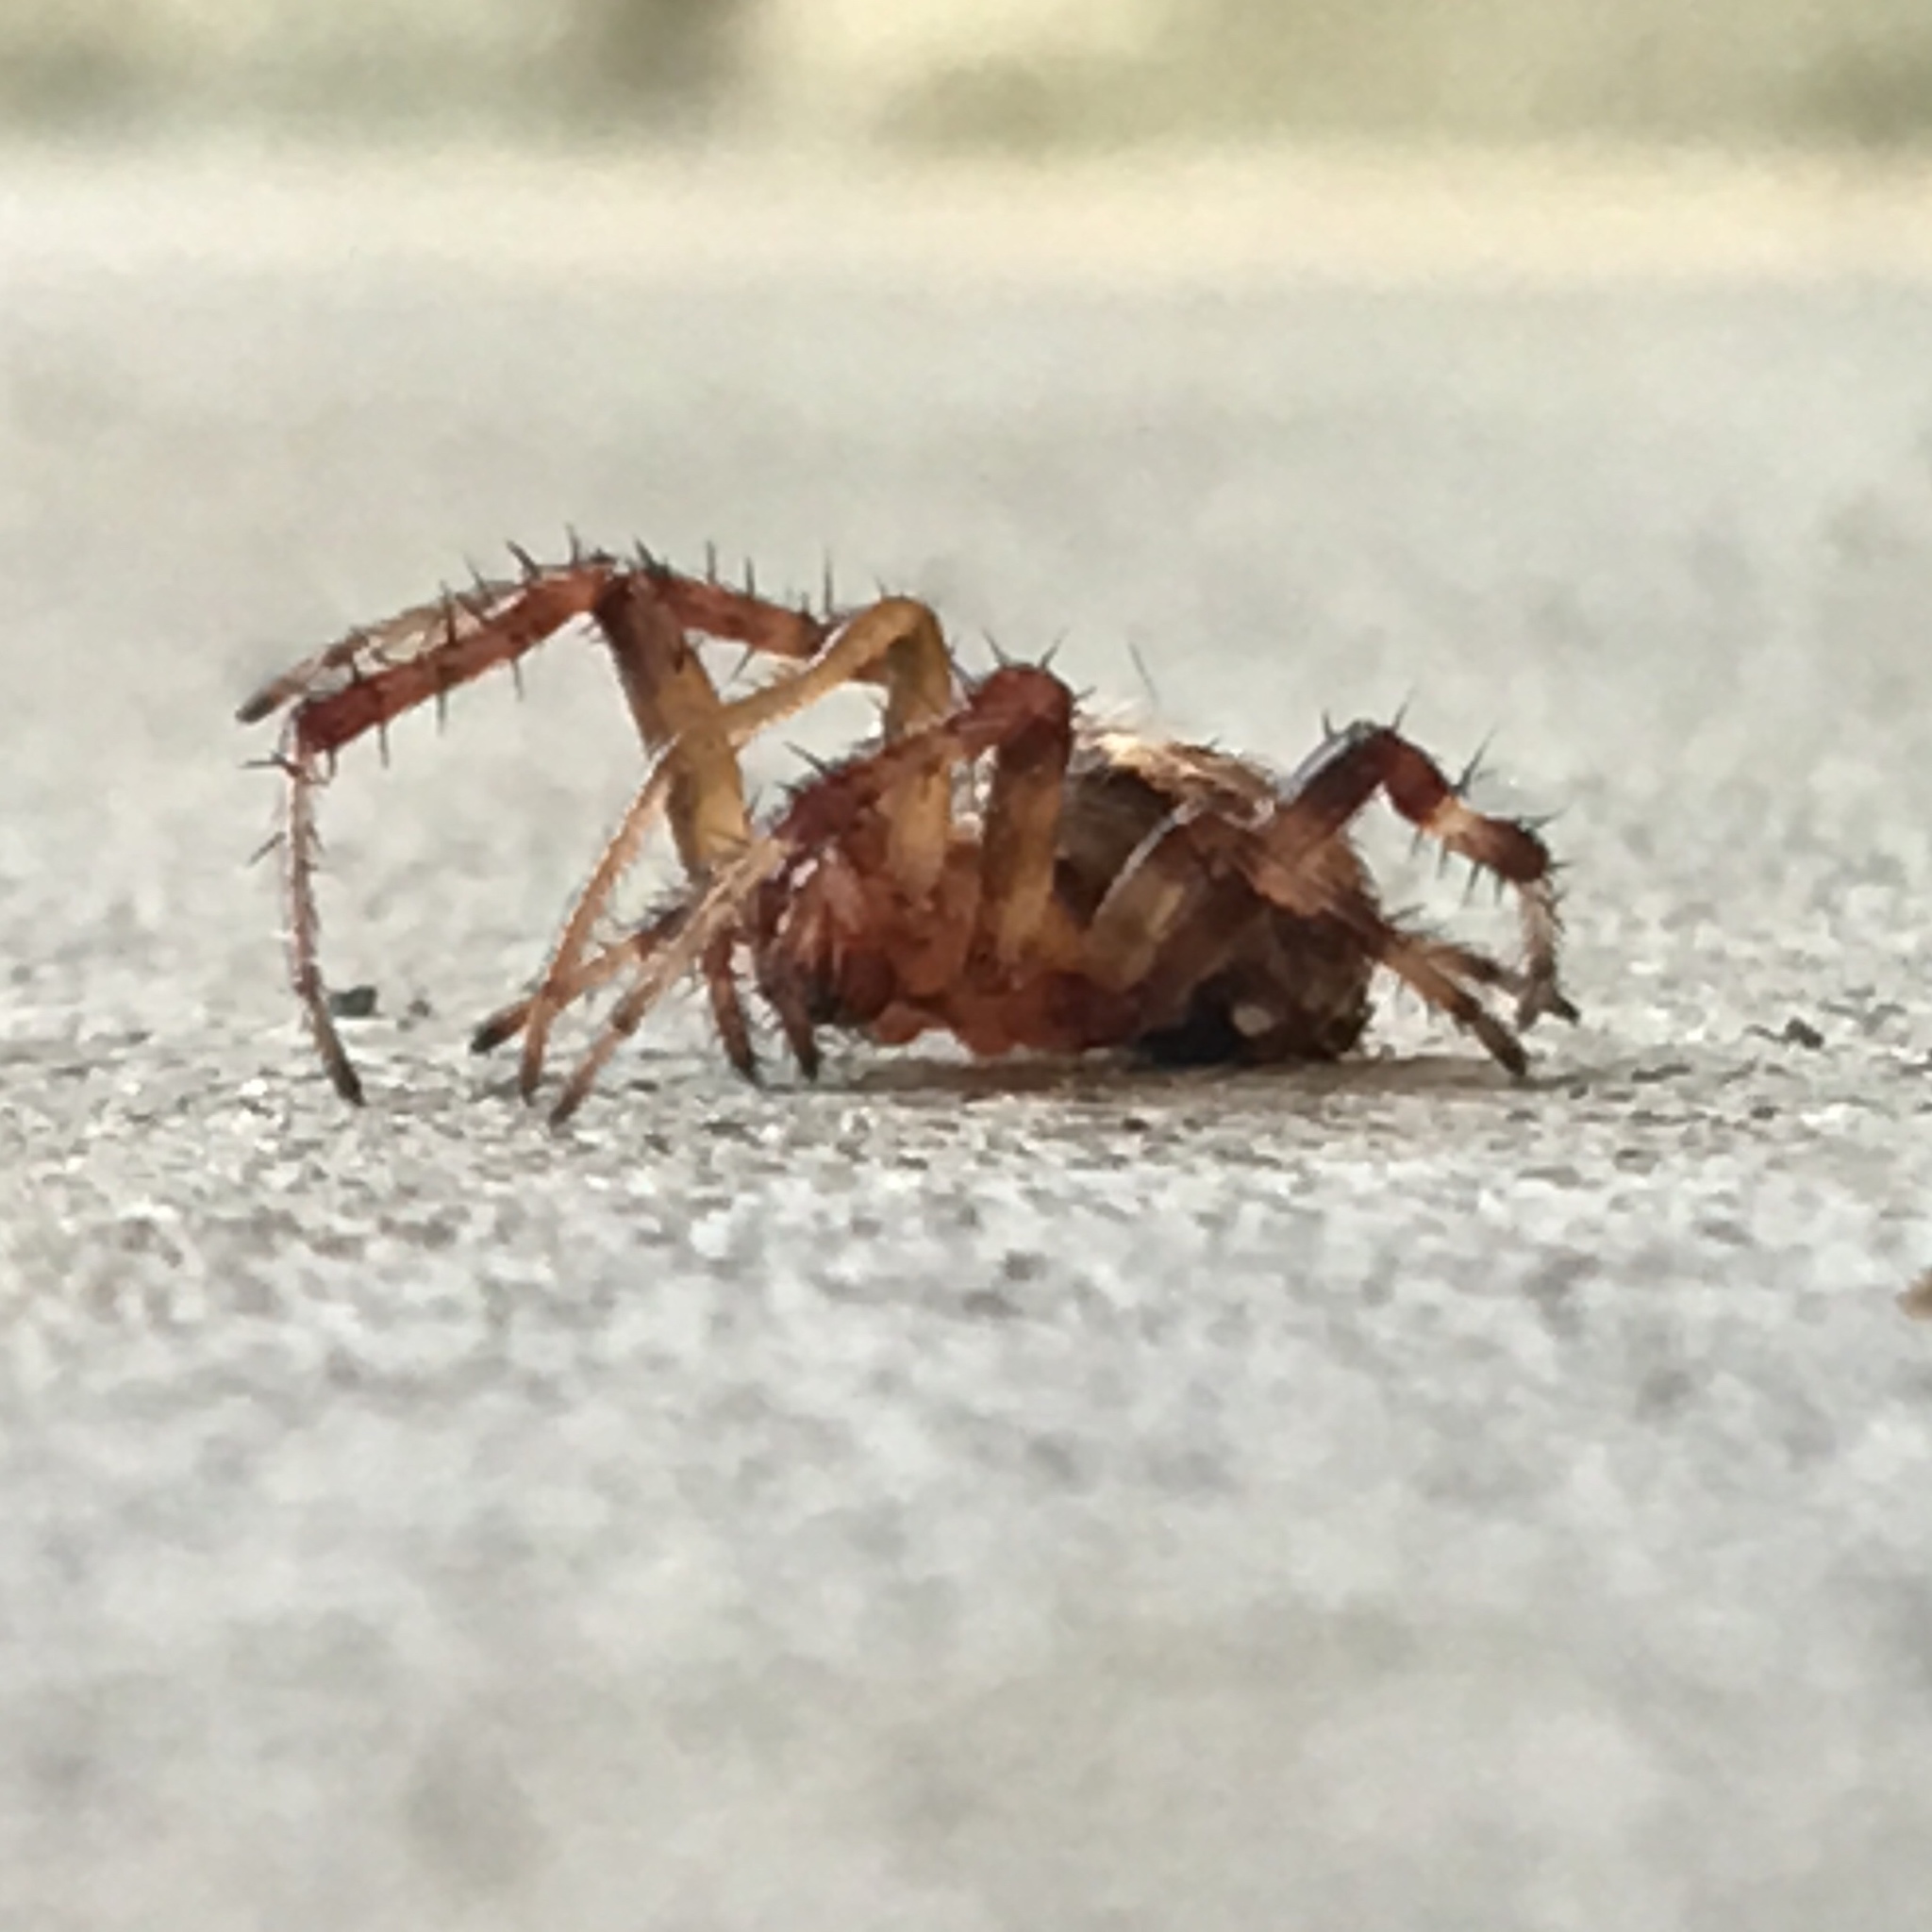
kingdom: Animalia
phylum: Arthropoda
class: Arachnida
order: Araneae
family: Araneidae
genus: Neoscona
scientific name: Neoscona arabesca
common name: Orb weavers
